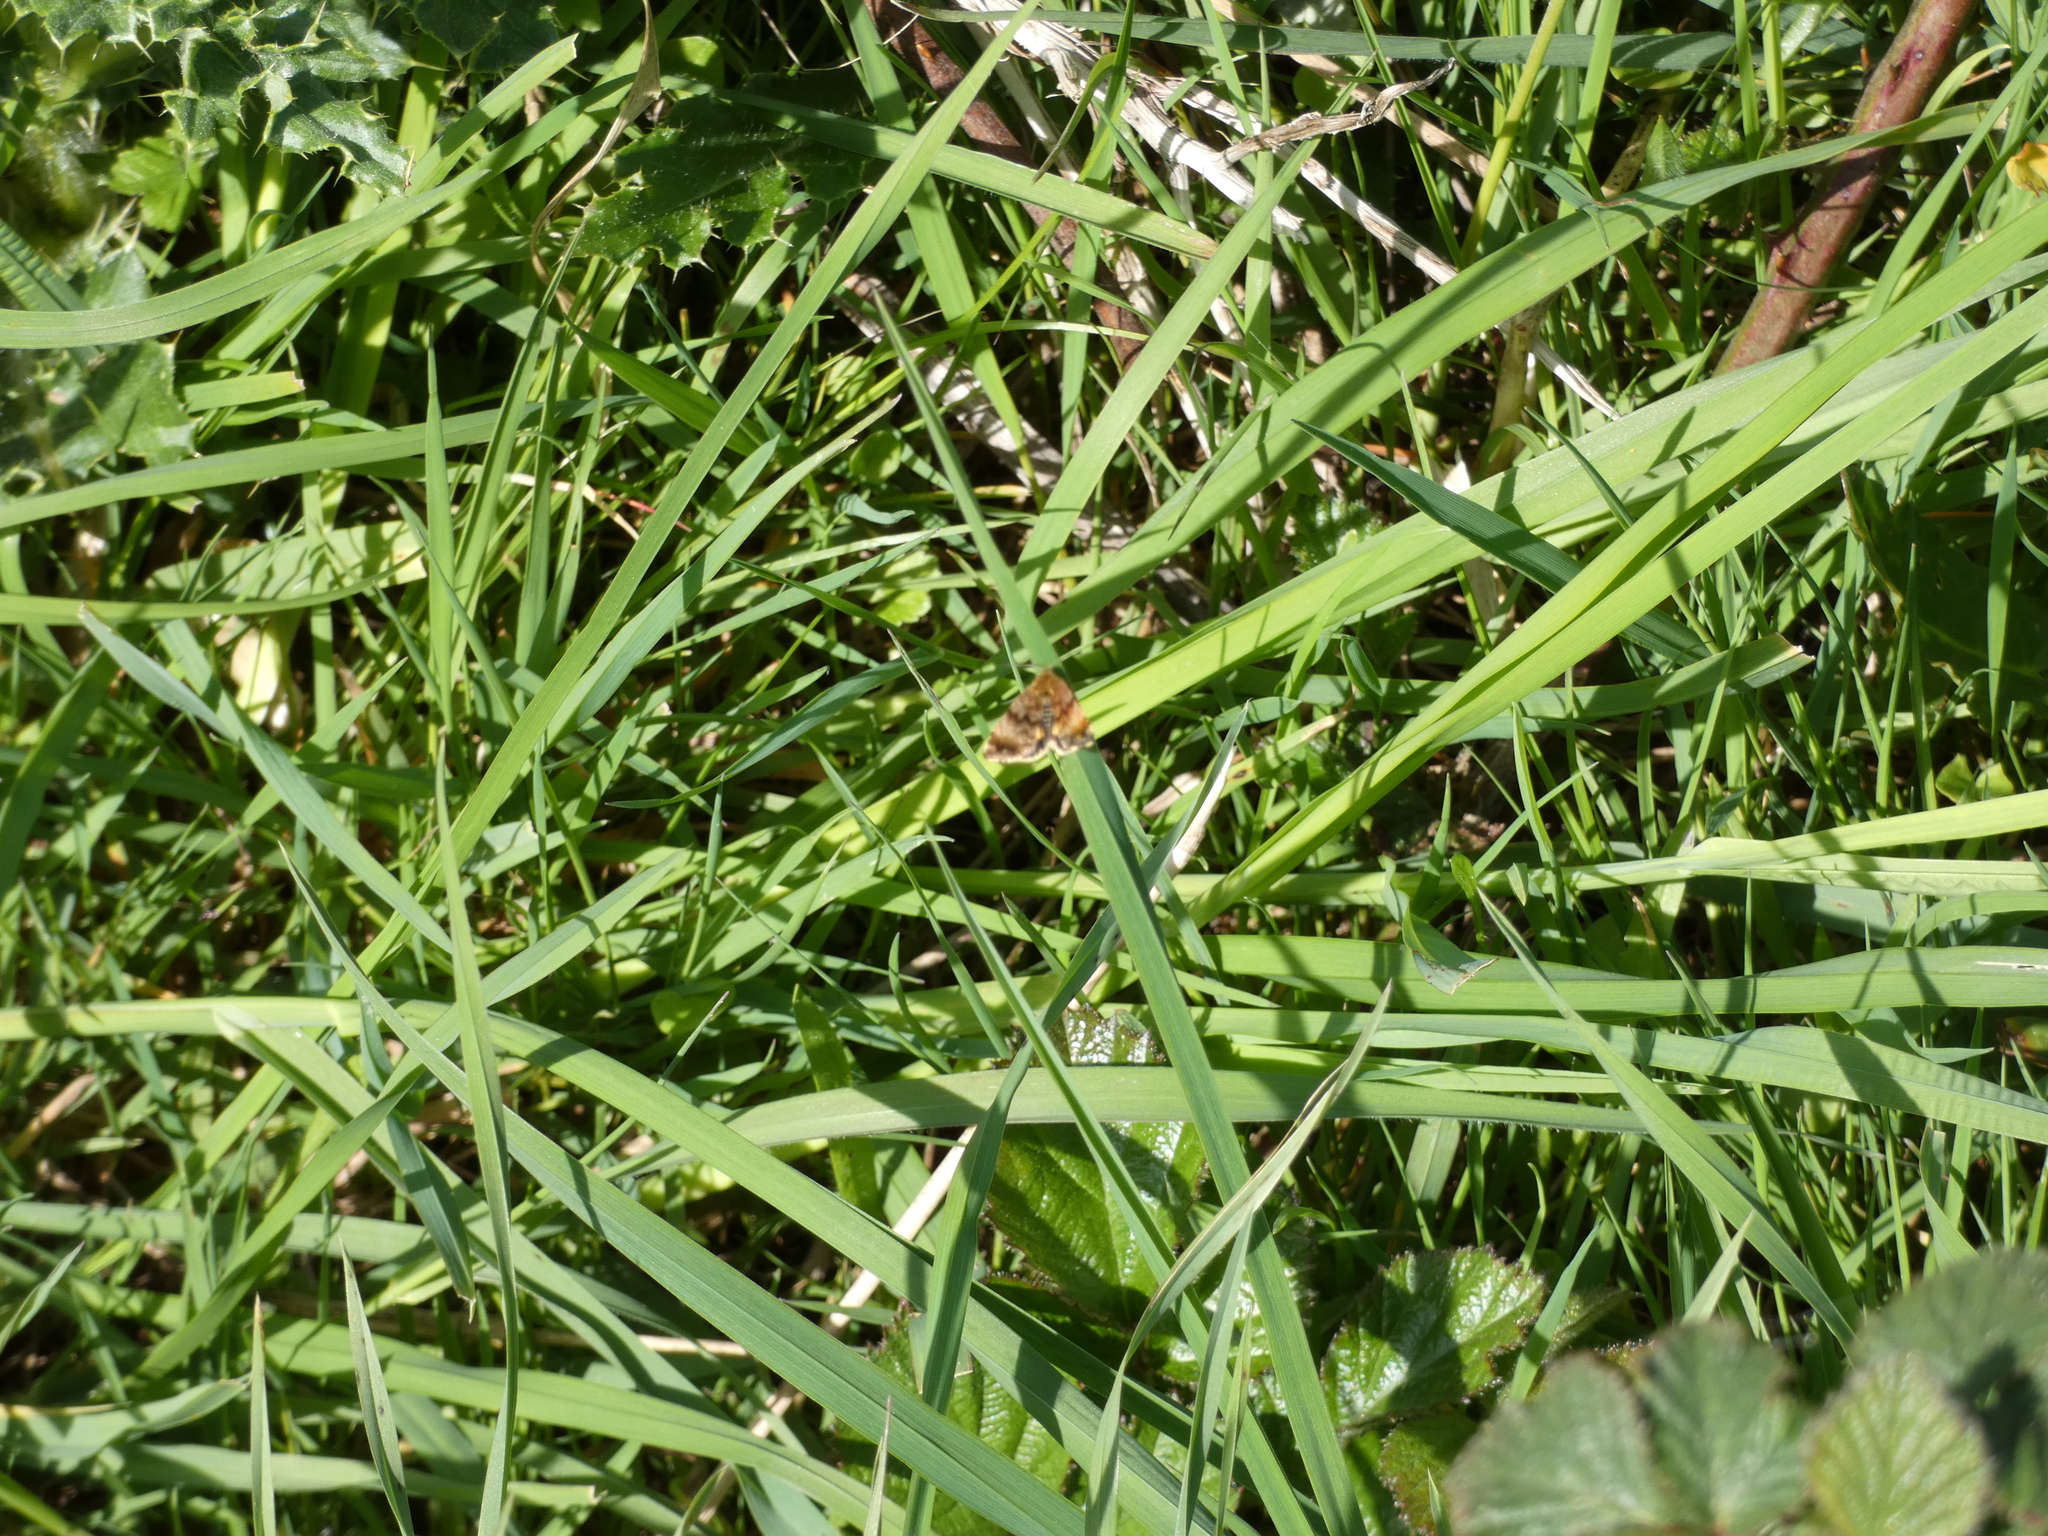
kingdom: Animalia
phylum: Arthropoda
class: Insecta
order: Lepidoptera
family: Noctuidae
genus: Panemeria
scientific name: Panemeria tenebrata
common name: Small yellow underwing
